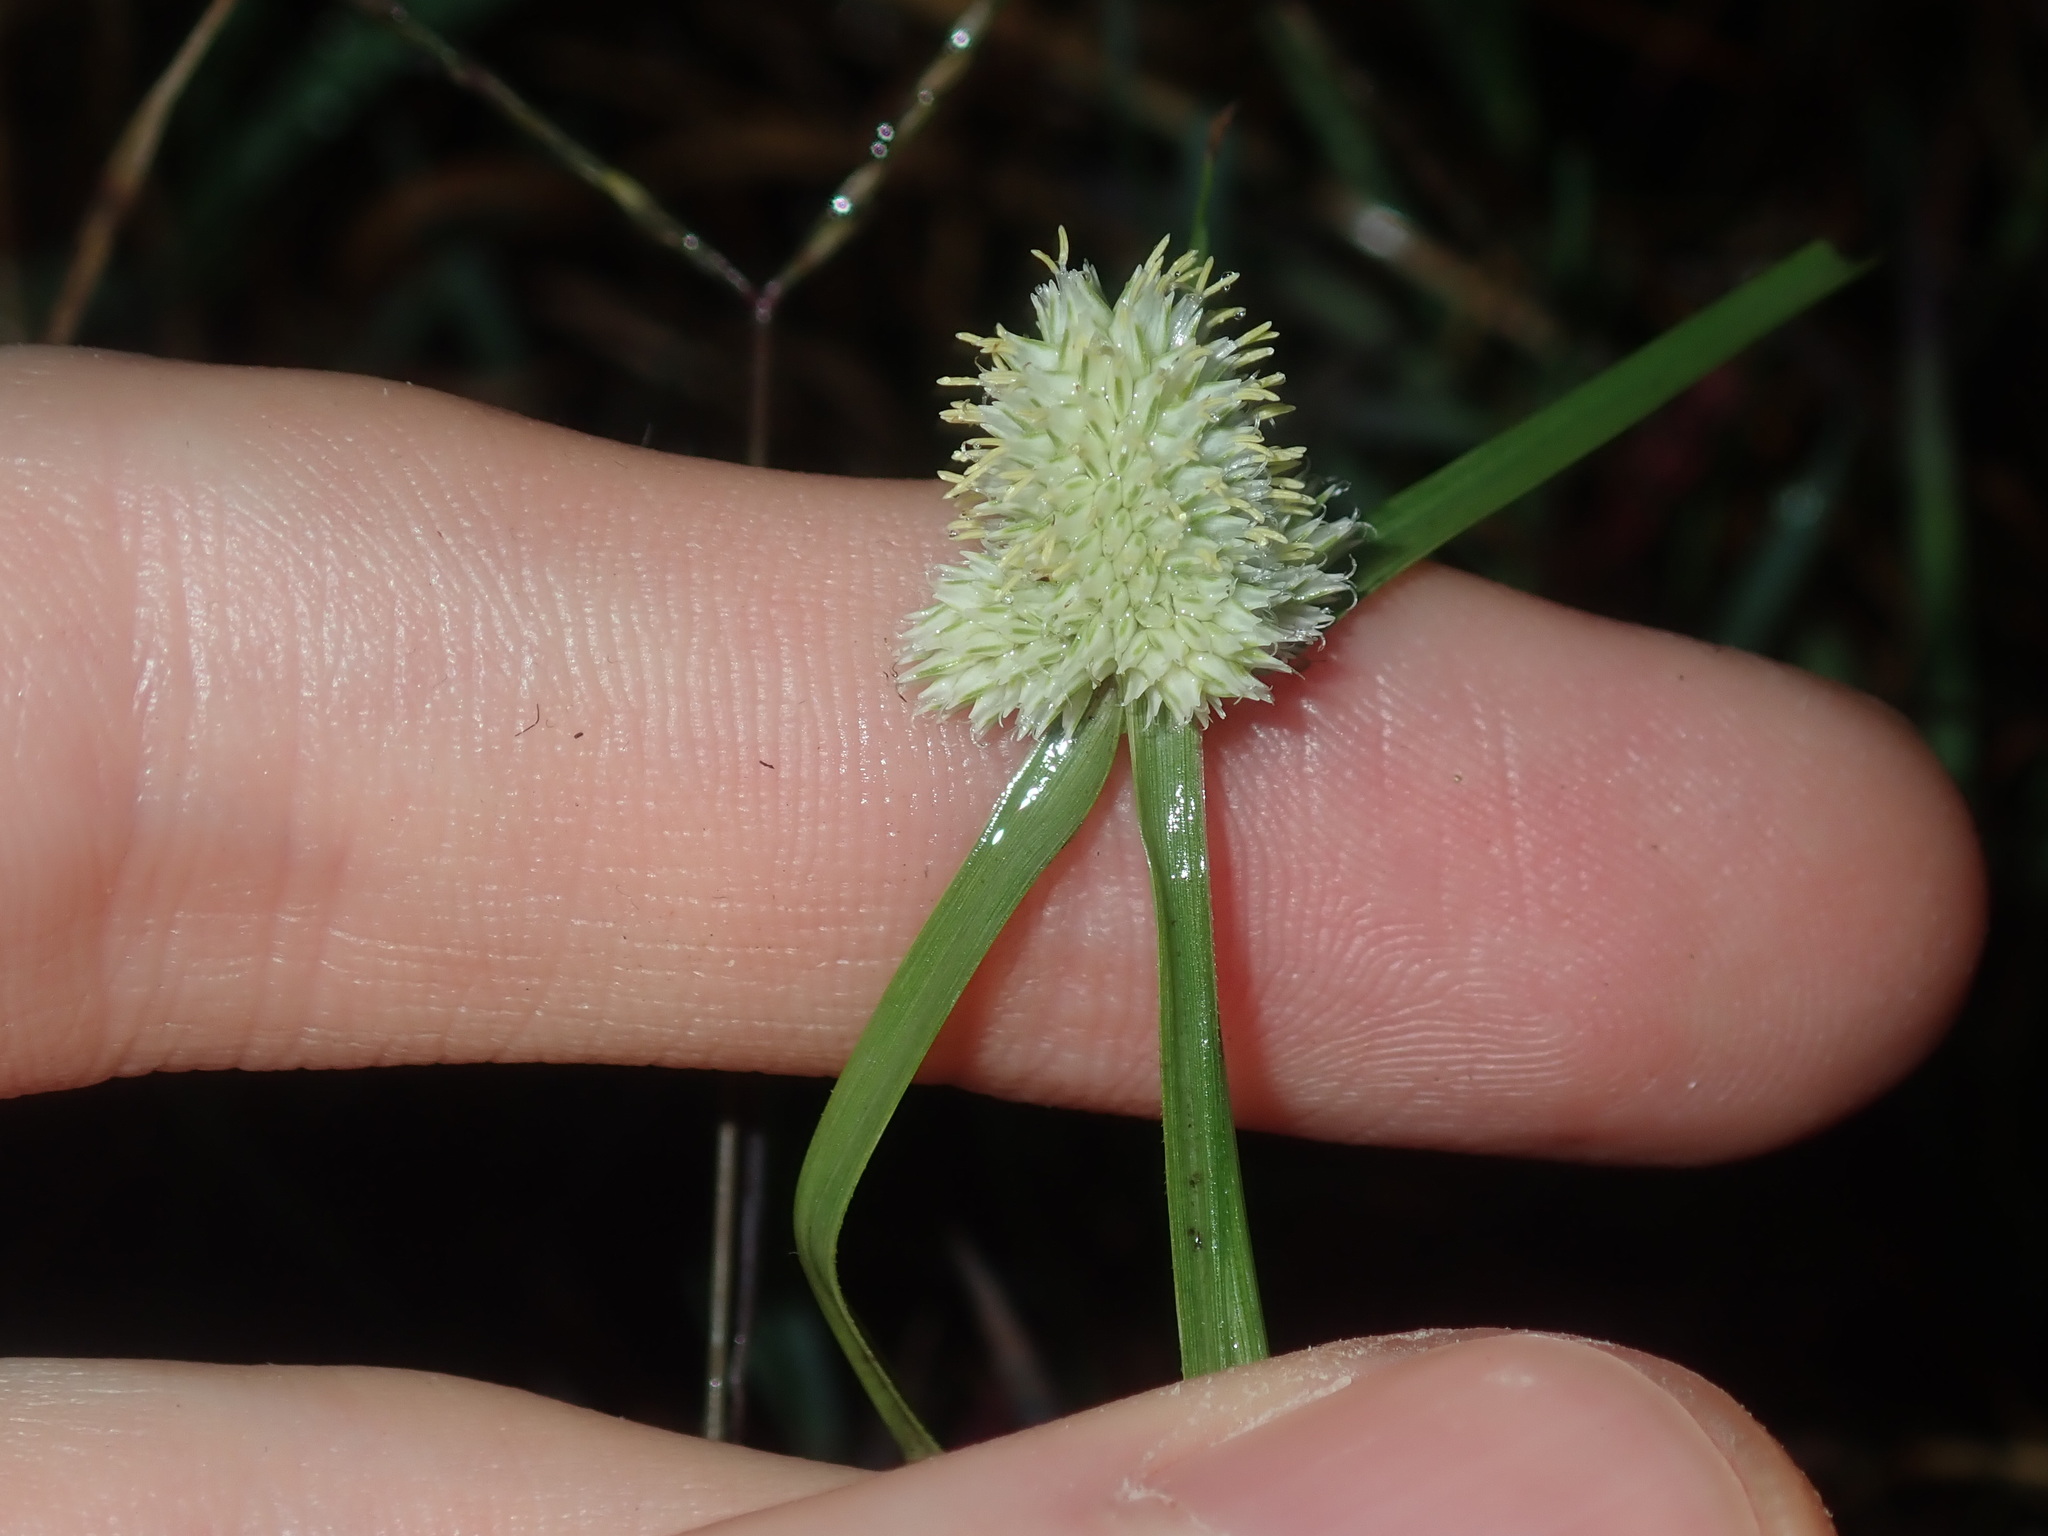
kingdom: Plantae
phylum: Tracheophyta
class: Liliopsida
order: Poales
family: Cyperaceae
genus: Cyperus
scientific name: Cyperus sesquiflorus
